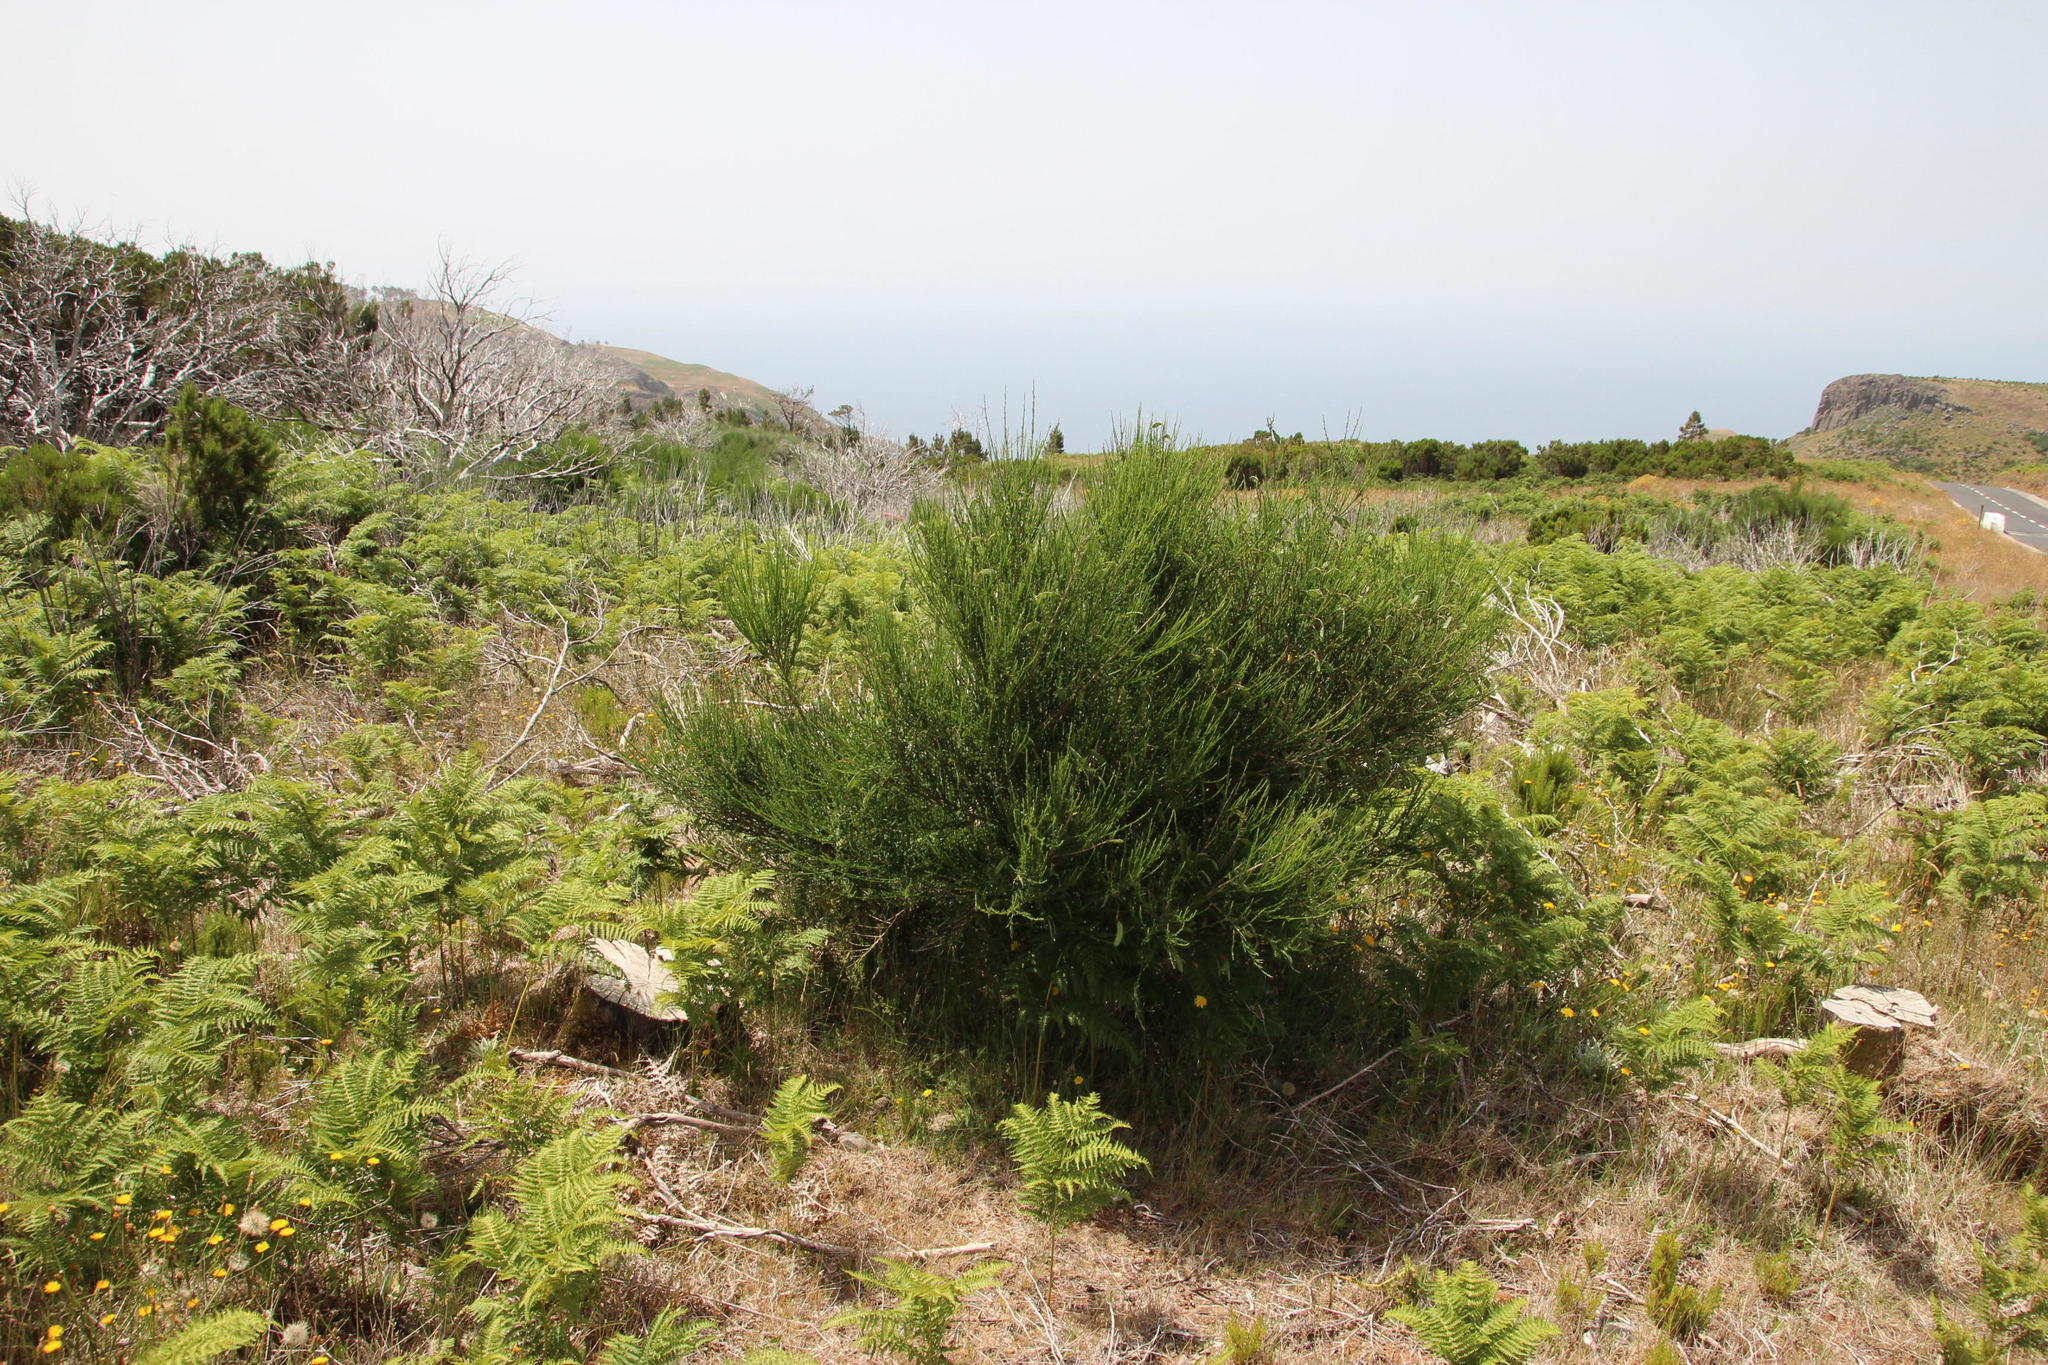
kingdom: Plantae
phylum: Tracheophyta
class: Magnoliopsida
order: Fabales
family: Fabaceae
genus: Cytisus
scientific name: Cytisus scoparius
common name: Scotch broom
